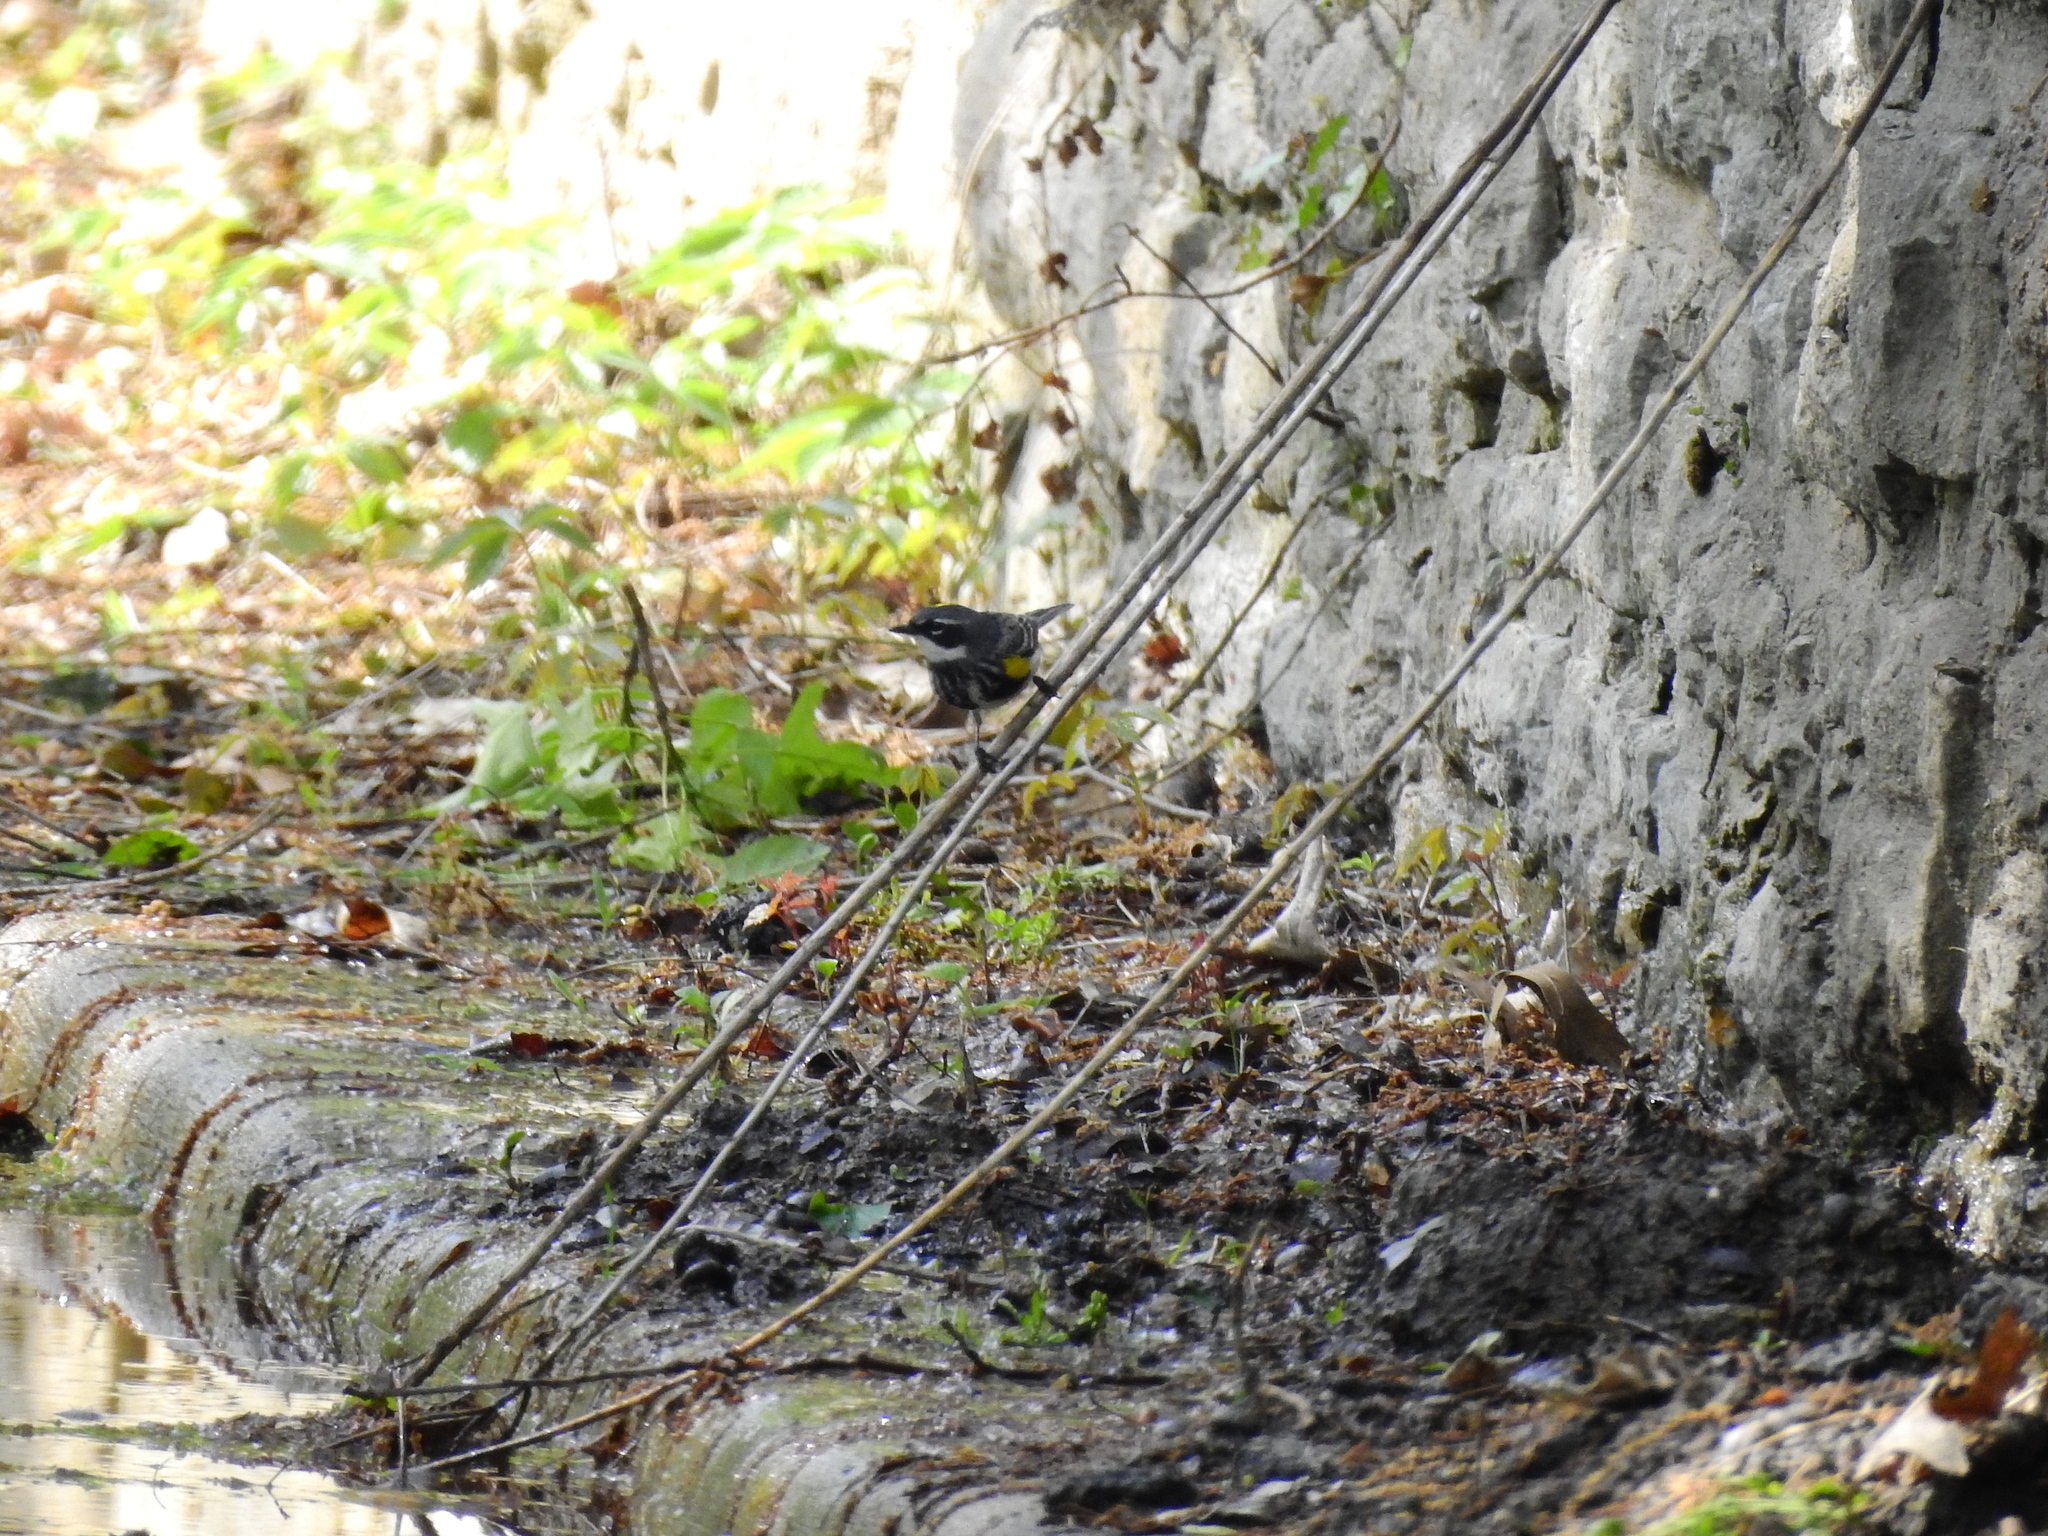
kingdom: Animalia
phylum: Chordata
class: Aves
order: Passeriformes
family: Parulidae
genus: Setophaga
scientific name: Setophaga coronata
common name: Myrtle warbler
